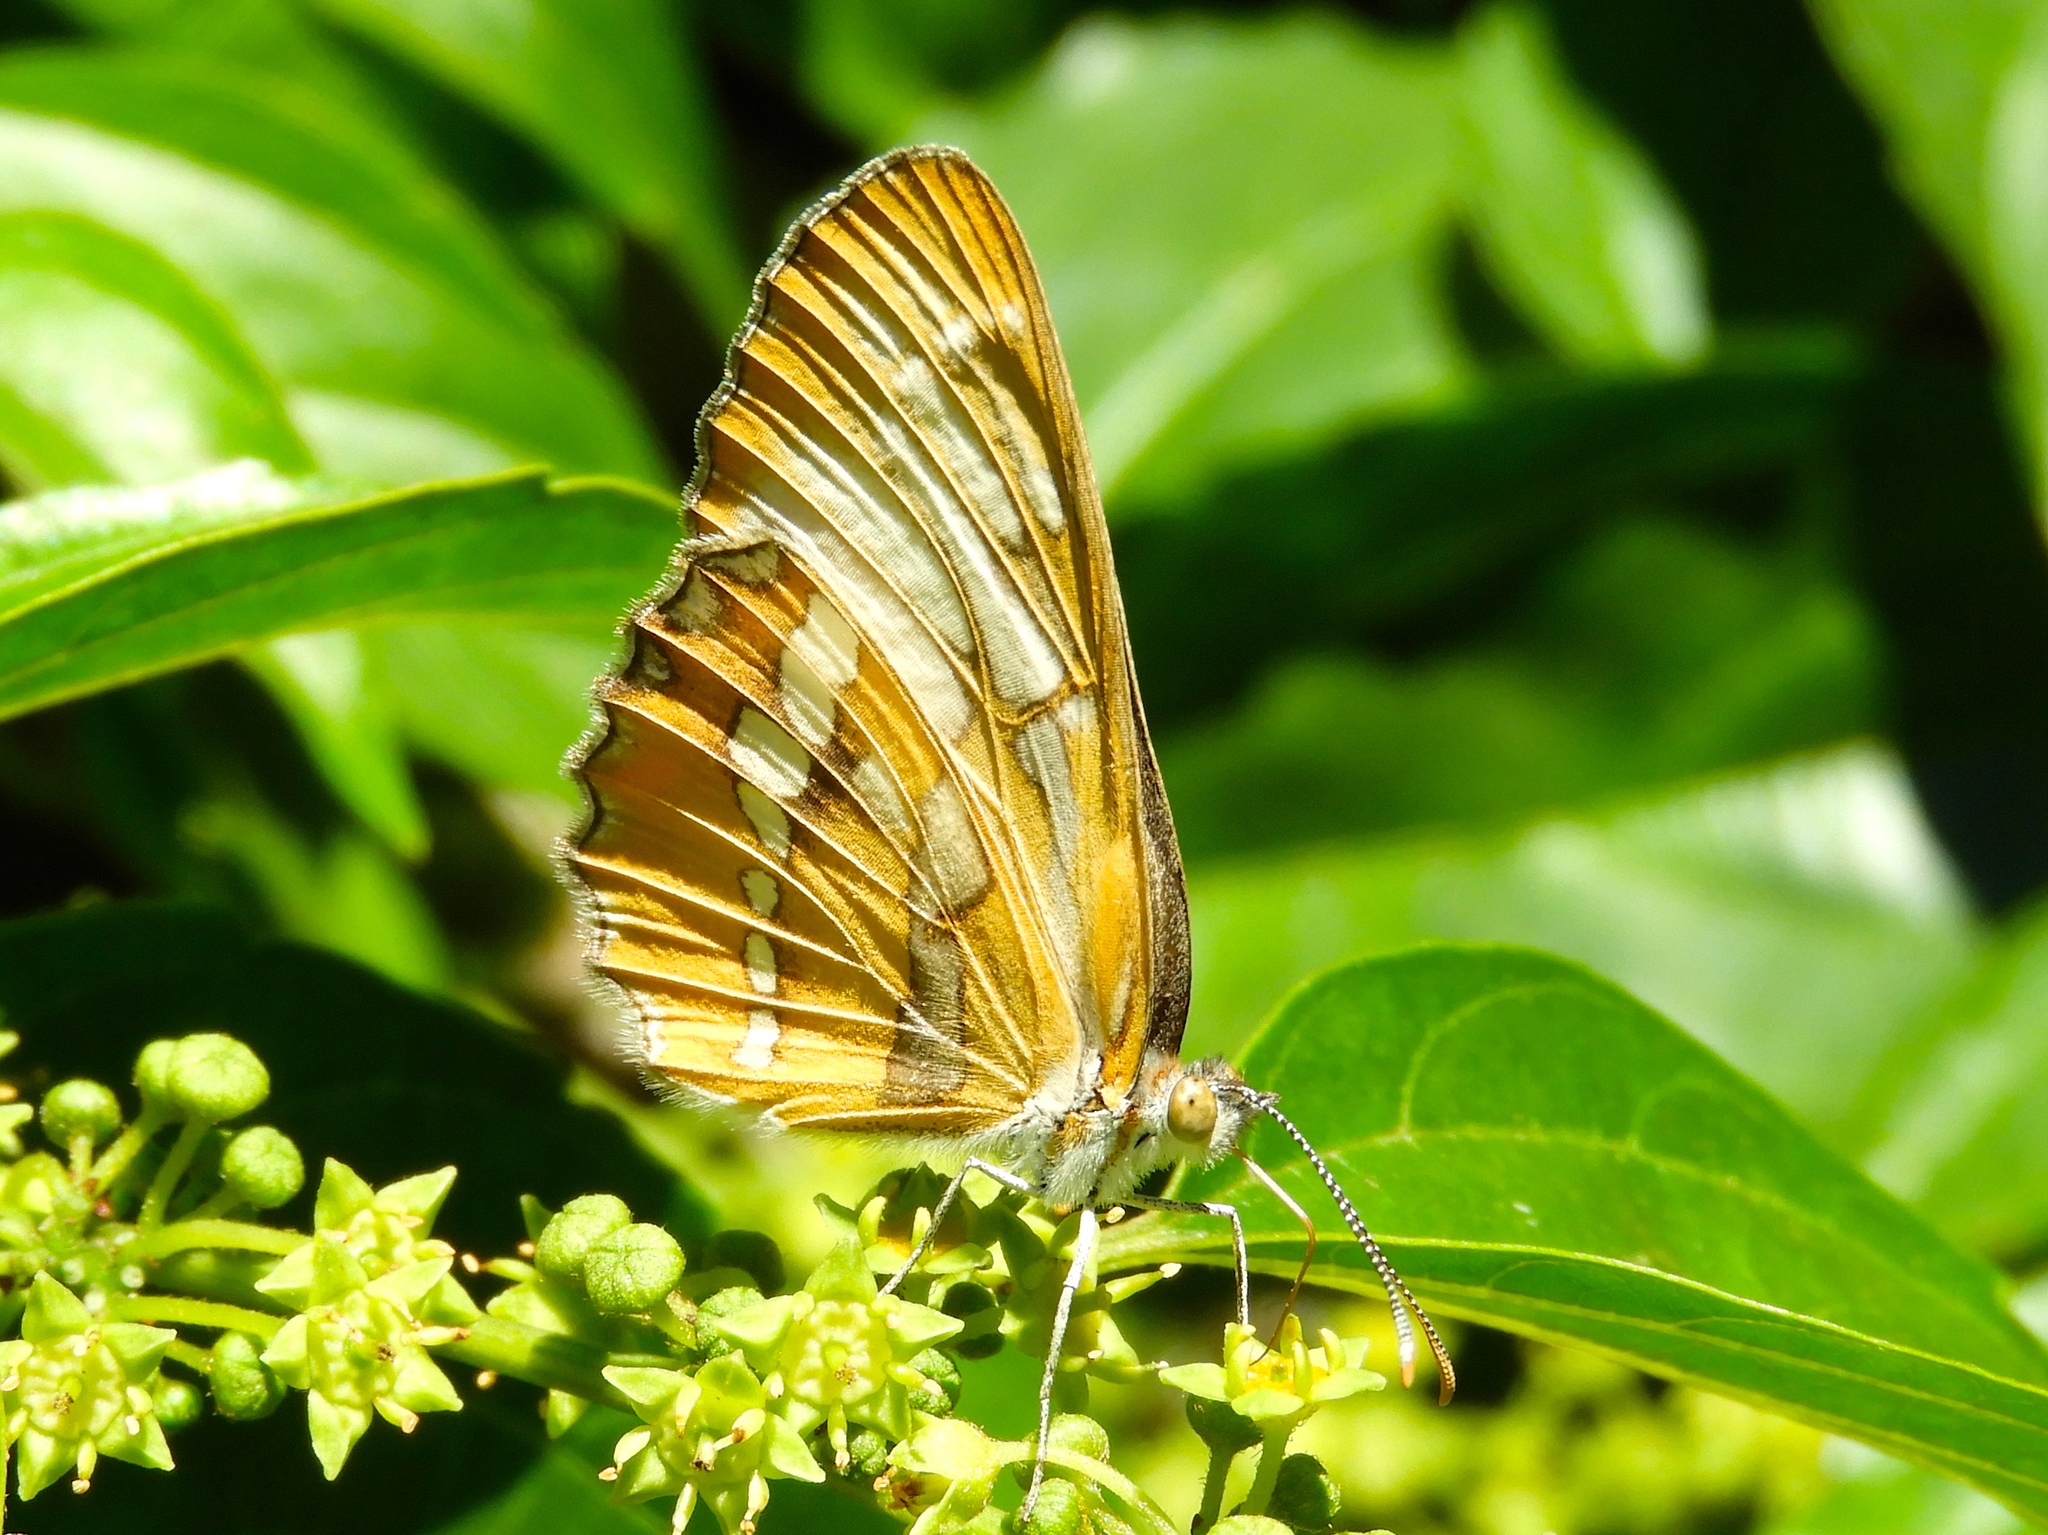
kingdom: Animalia
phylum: Arthropoda
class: Insecta
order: Lepidoptera
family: Nymphalidae
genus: Mestra
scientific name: Mestra amymone
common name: Common mestra
